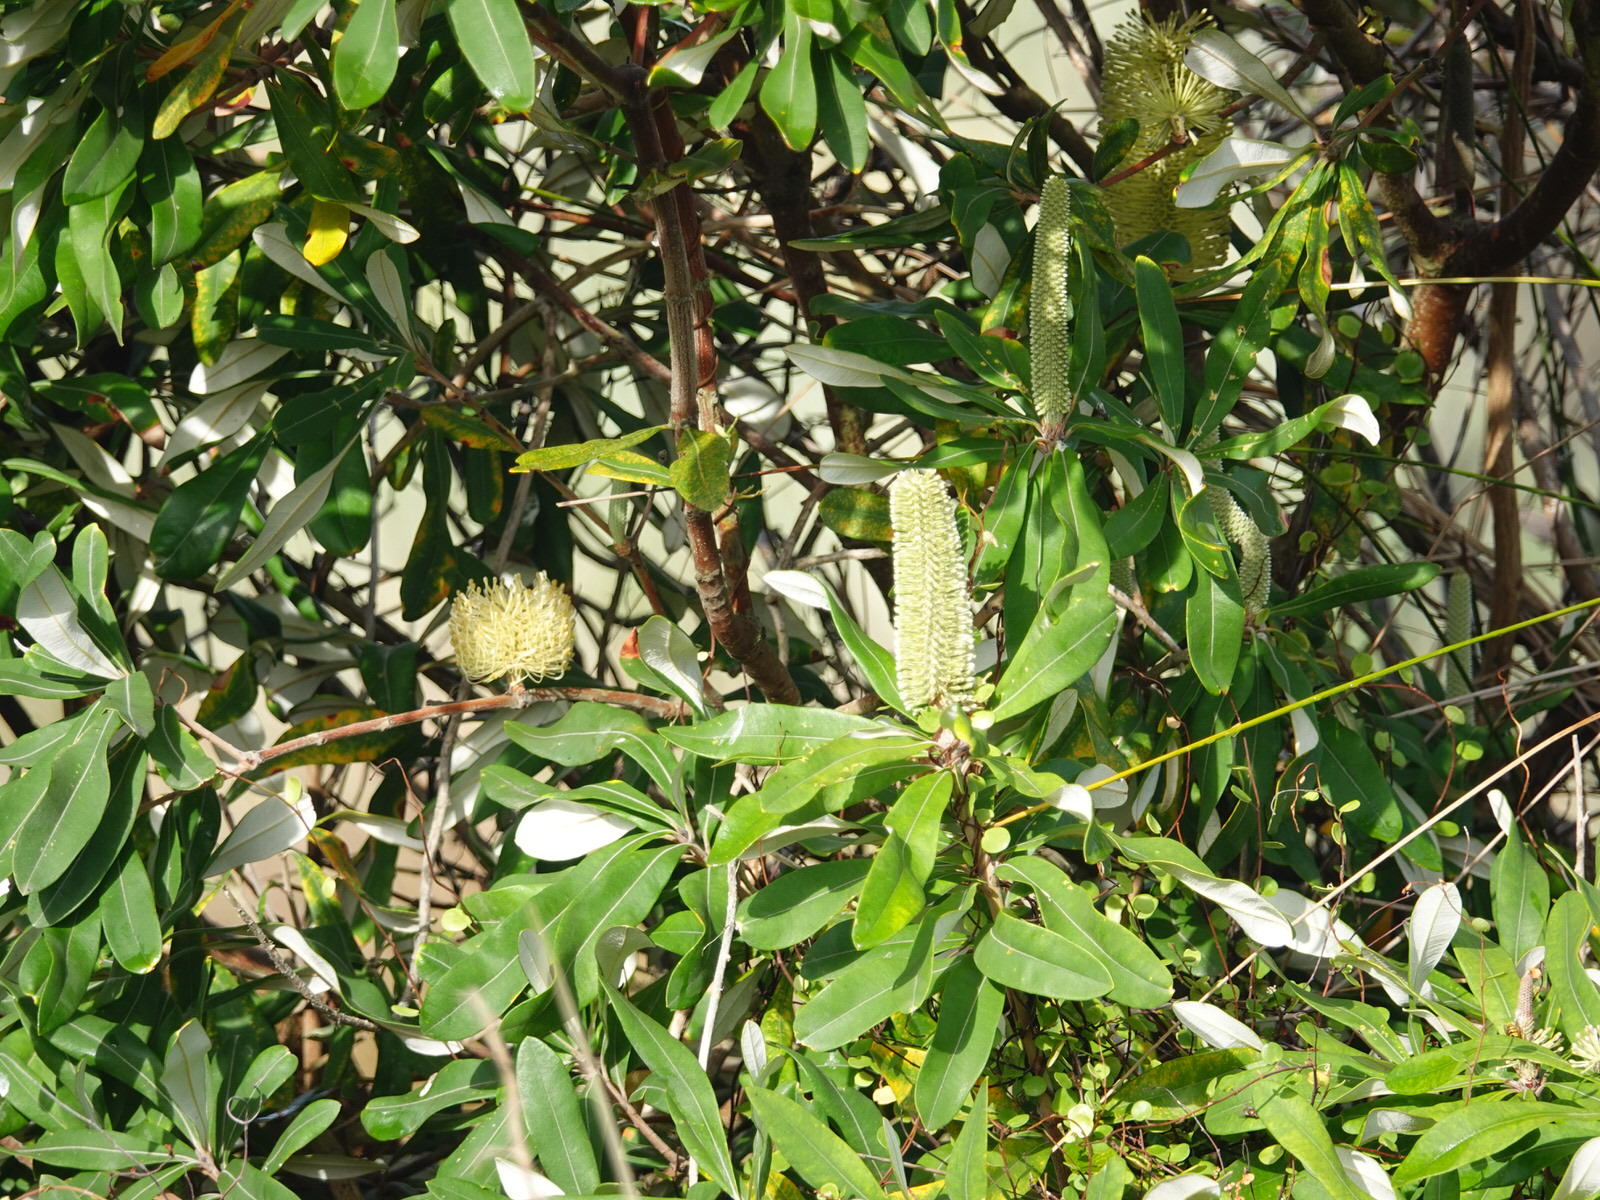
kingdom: Plantae
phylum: Tracheophyta
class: Magnoliopsida
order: Proteales
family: Proteaceae
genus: Banksia
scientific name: Banksia integrifolia
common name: White-honeysuckle
